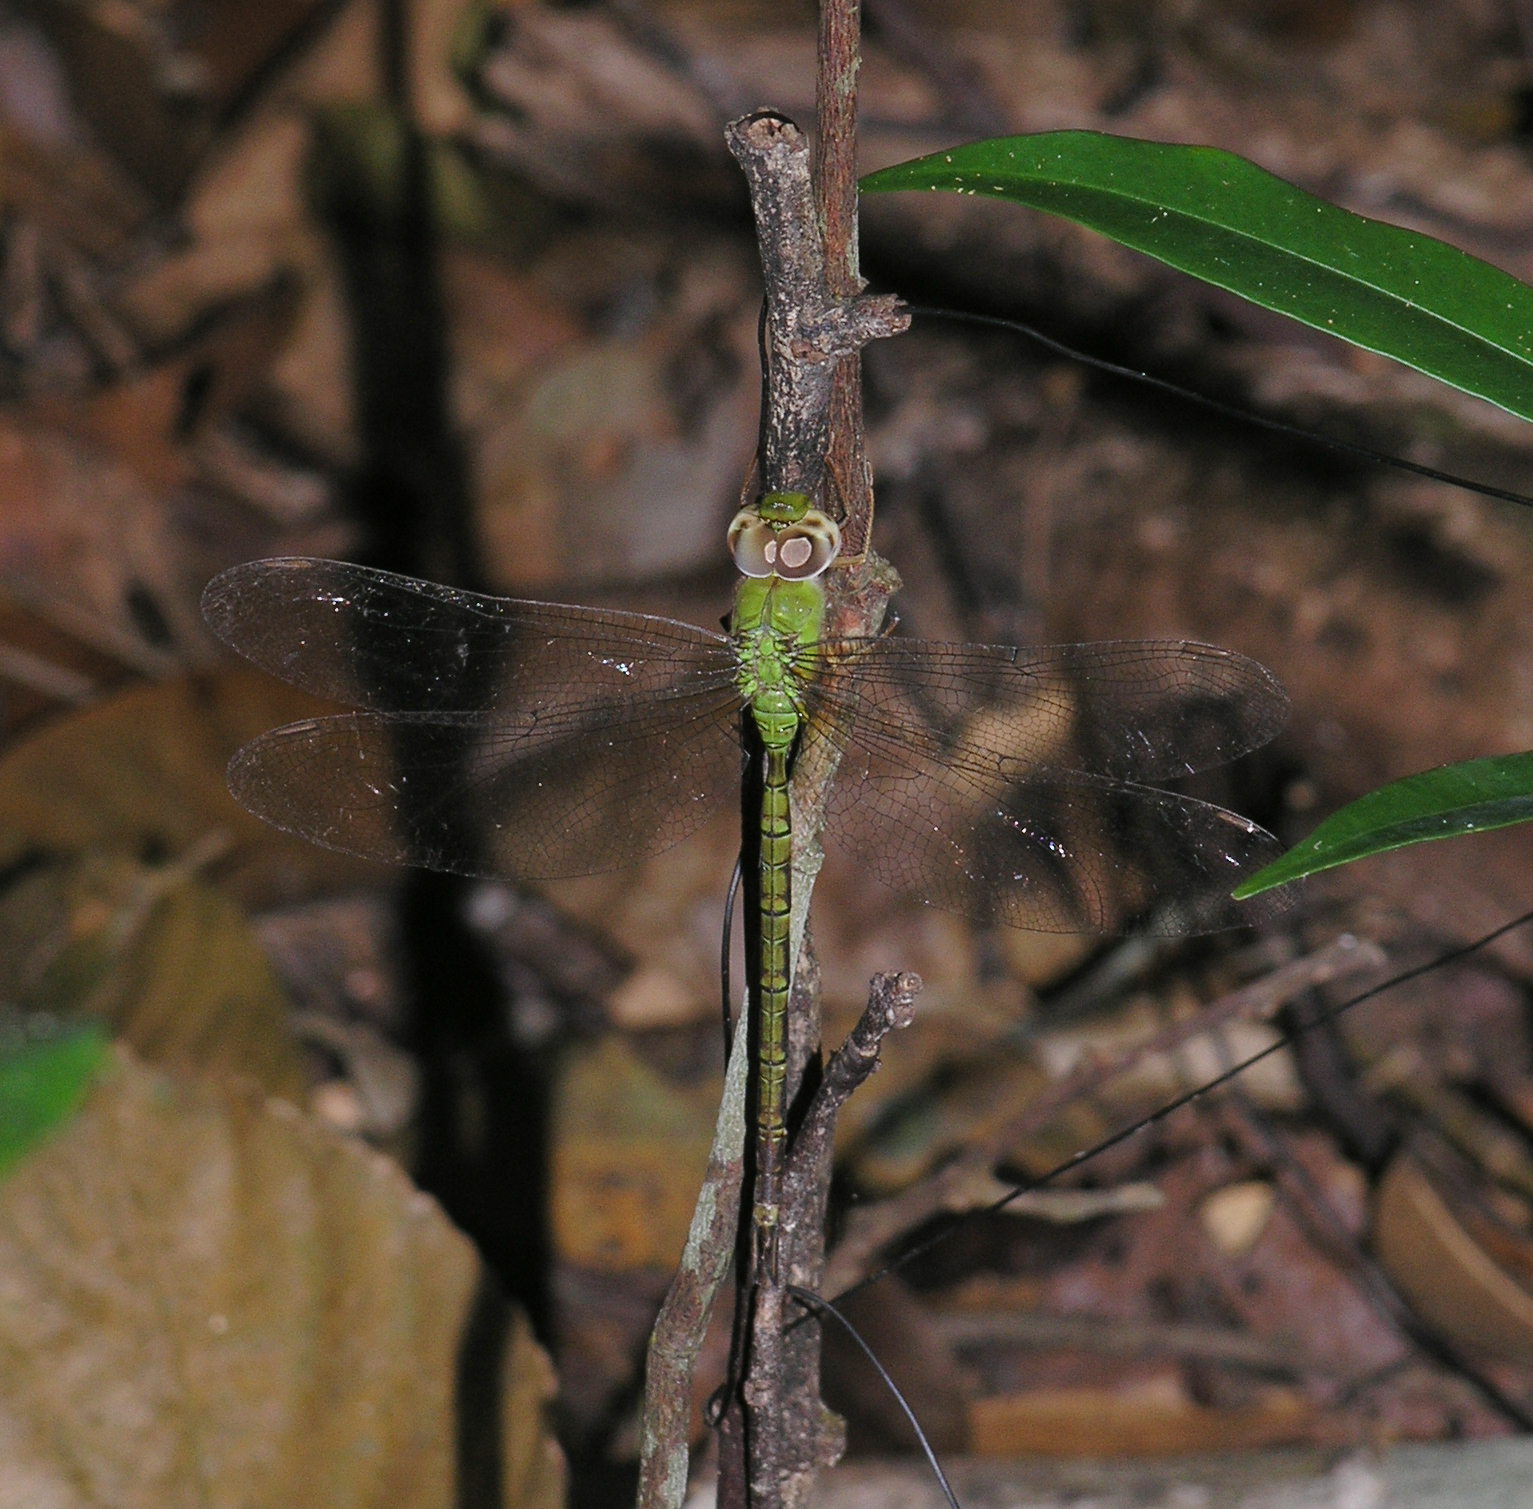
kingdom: Animalia
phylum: Arthropoda
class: Insecta
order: Odonata
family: Aeshnidae
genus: Gynacantha
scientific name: Gynacantha bayadera
